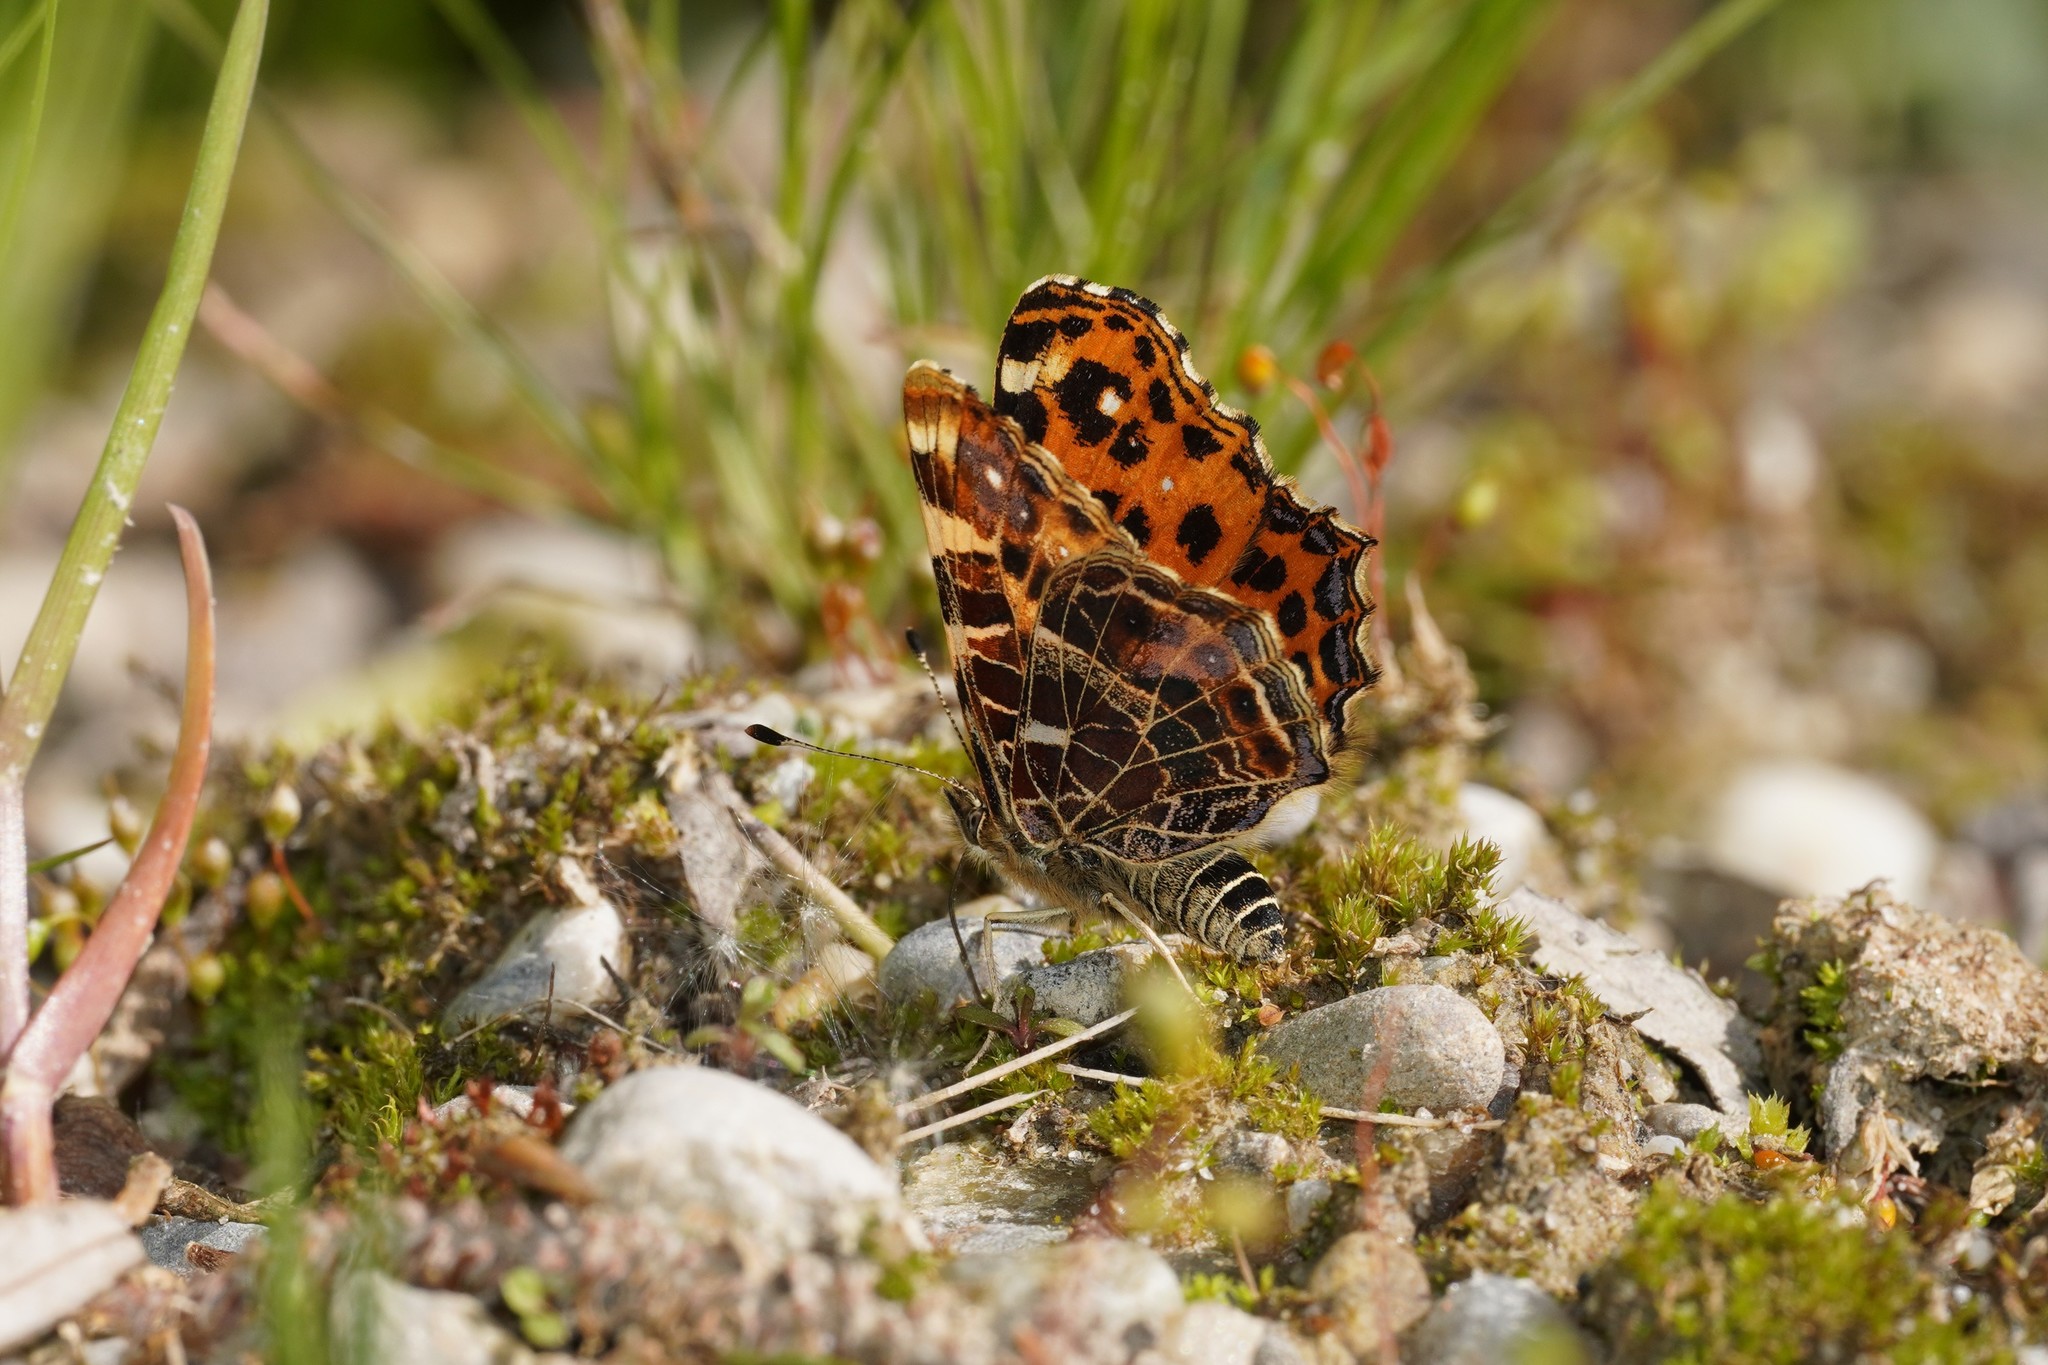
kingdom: Animalia
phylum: Arthropoda
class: Insecta
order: Lepidoptera
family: Nymphalidae
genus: Araschnia
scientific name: Araschnia levana
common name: Map butterfly
